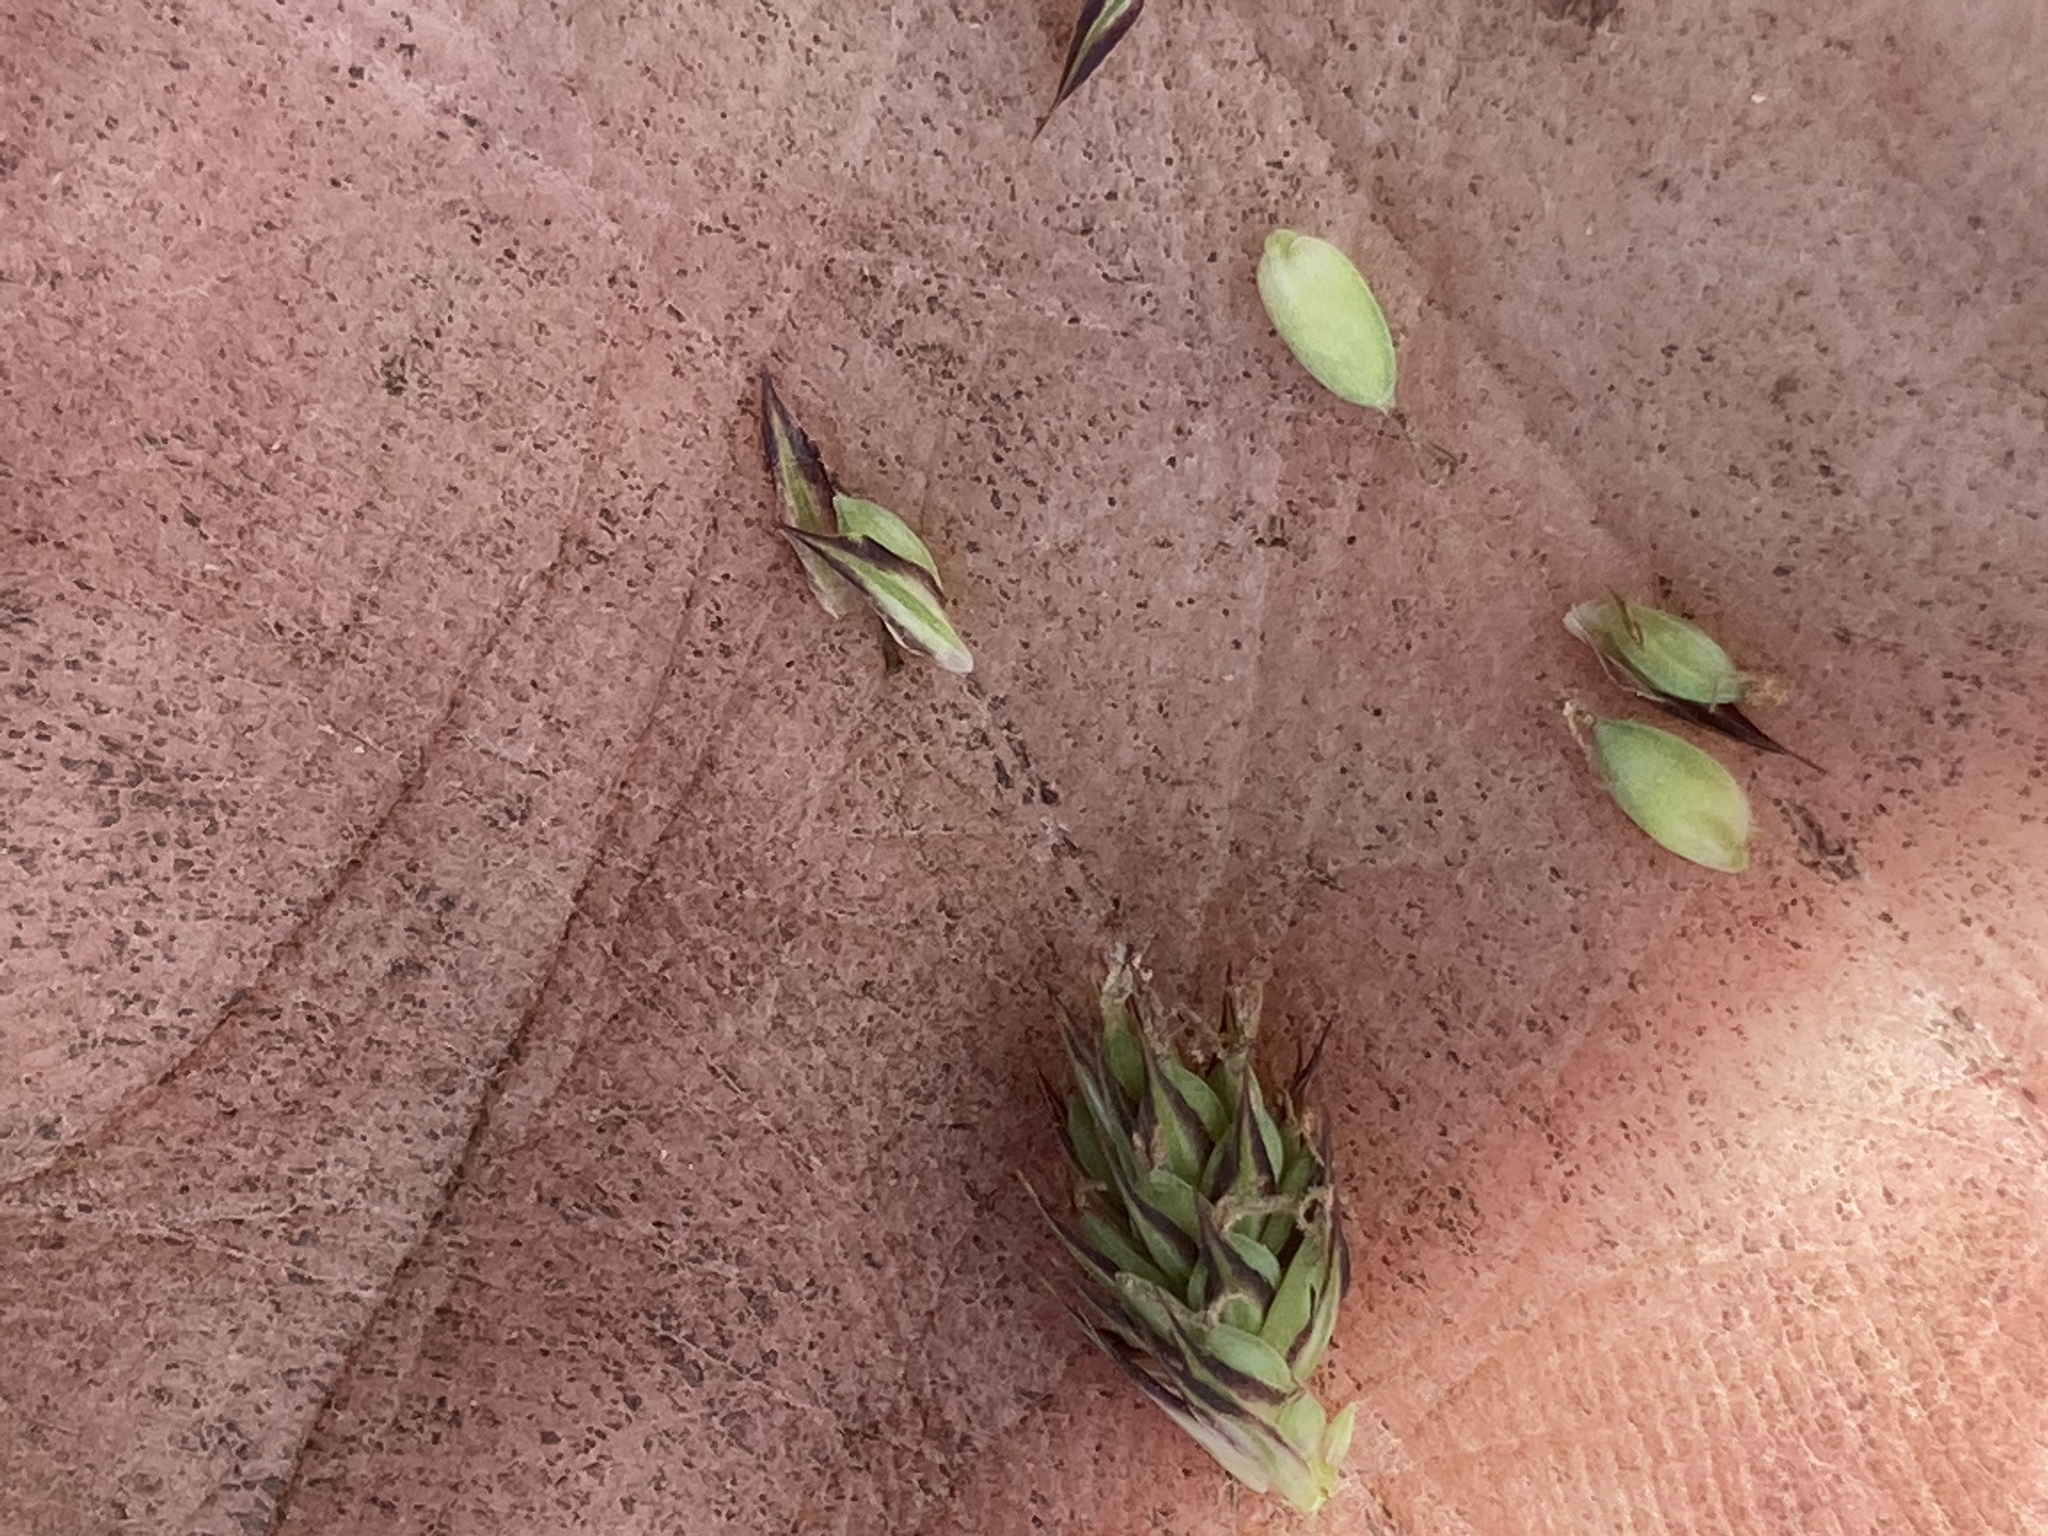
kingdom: Plantae
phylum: Tracheophyta
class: Liliopsida
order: Poales
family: Cyperaceae
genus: Carex
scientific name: Carex buxbaumii
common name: Club sedge
